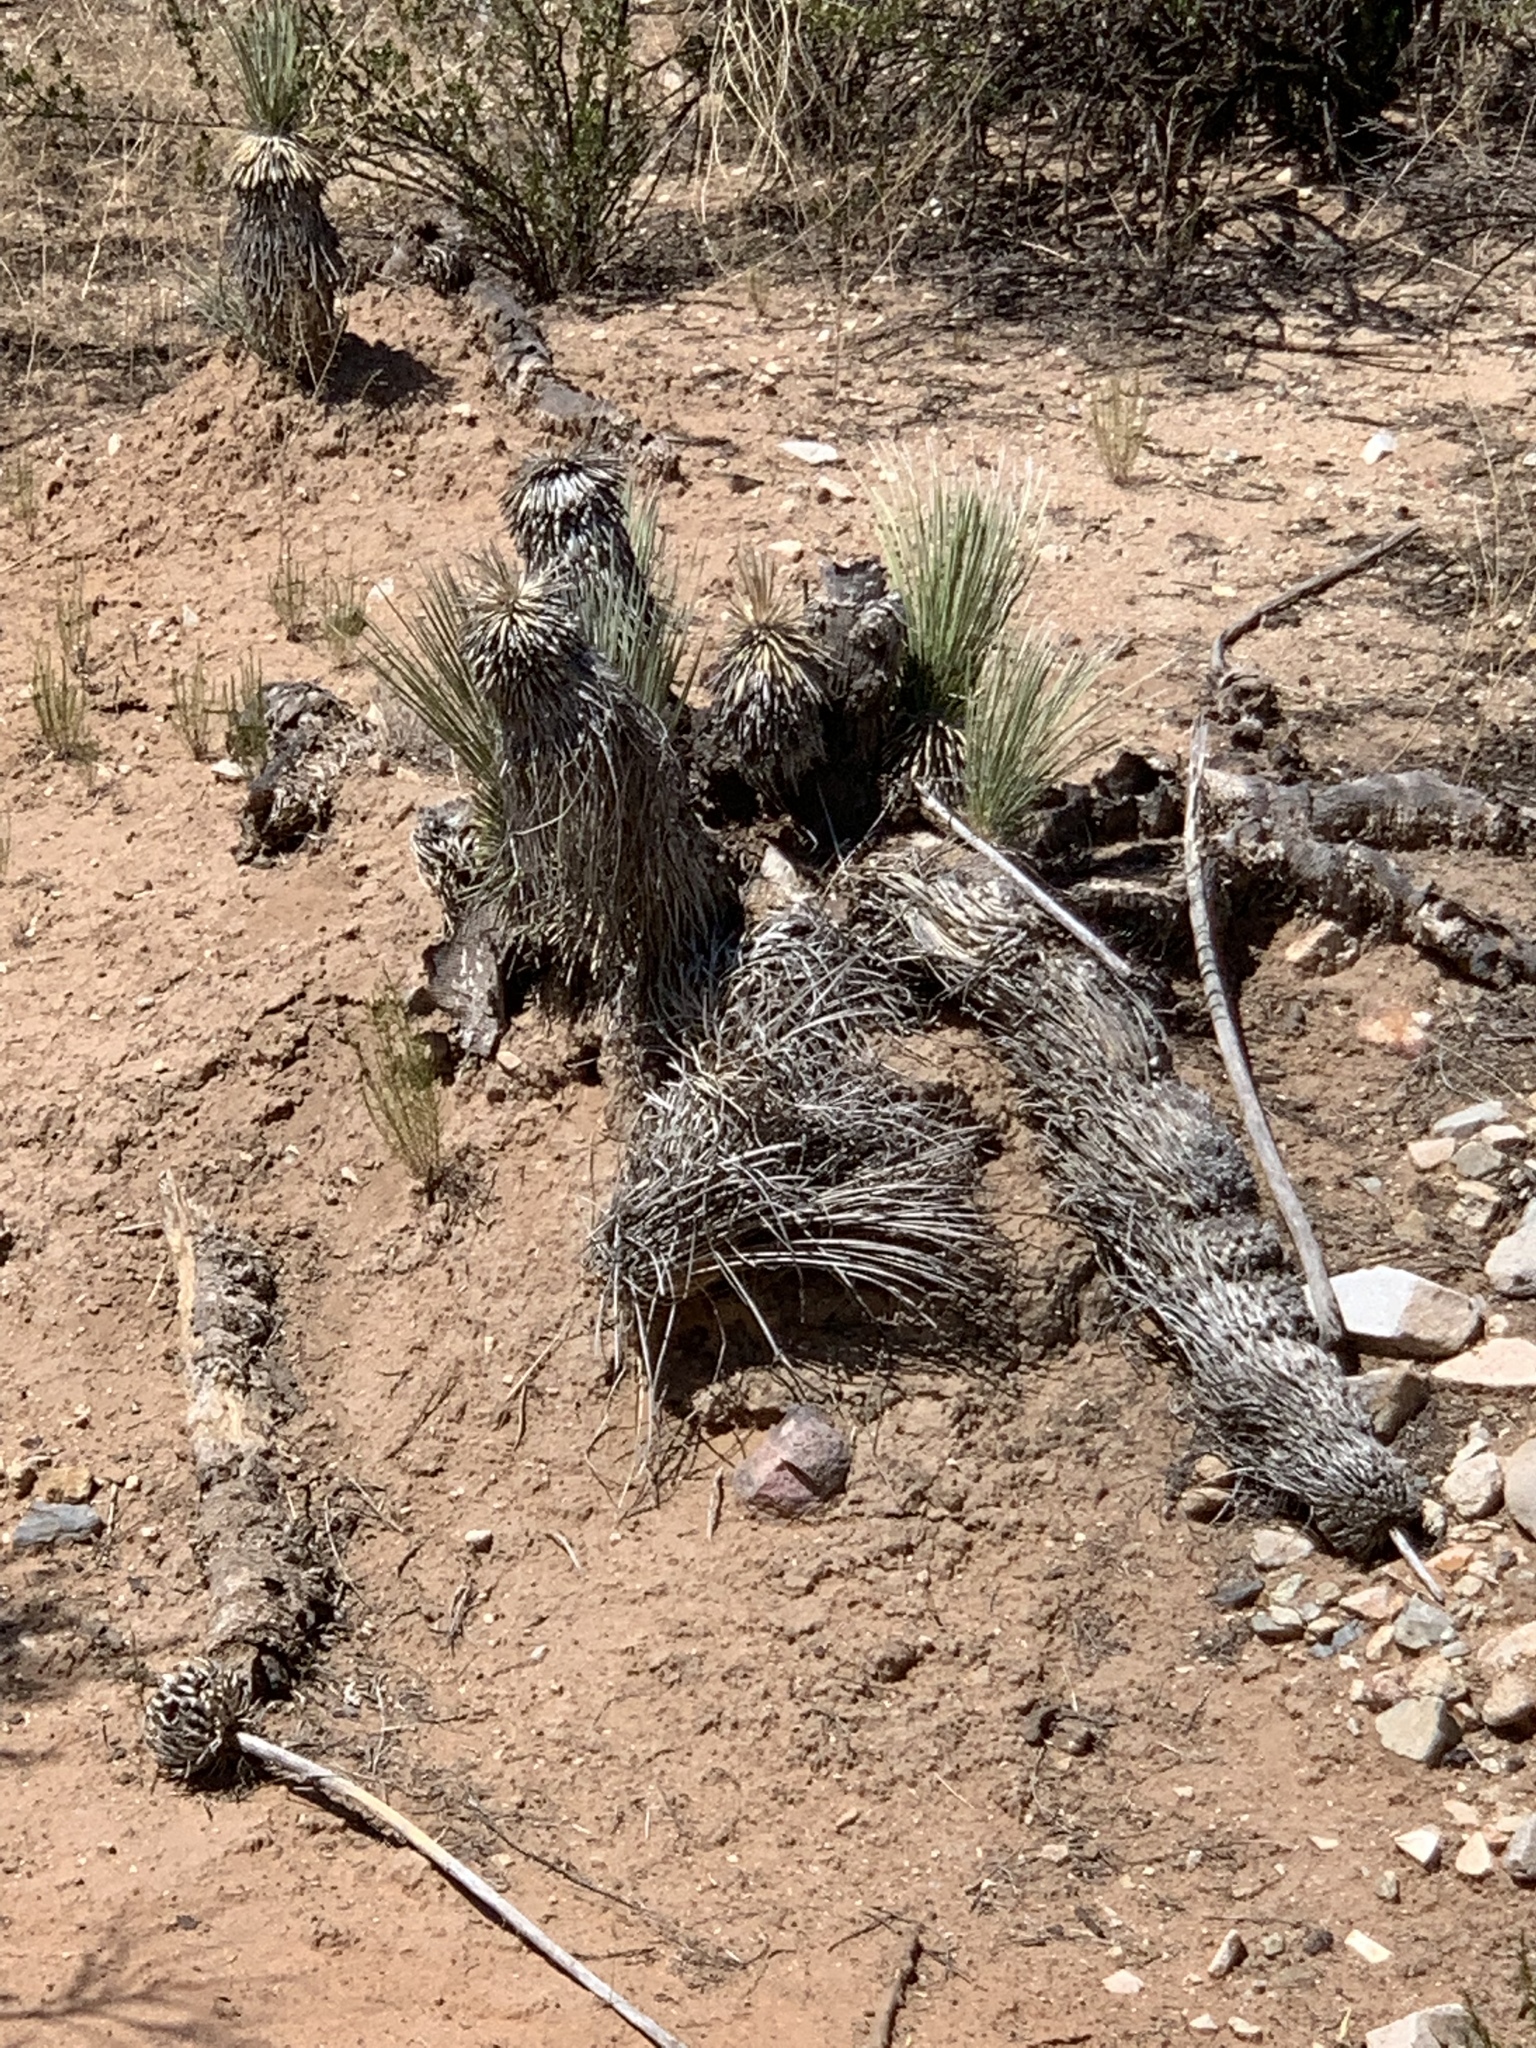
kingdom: Plantae
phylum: Tracheophyta
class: Liliopsida
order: Asparagales
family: Asparagaceae
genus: Yucca
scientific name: Yucca elata
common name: Palmella
